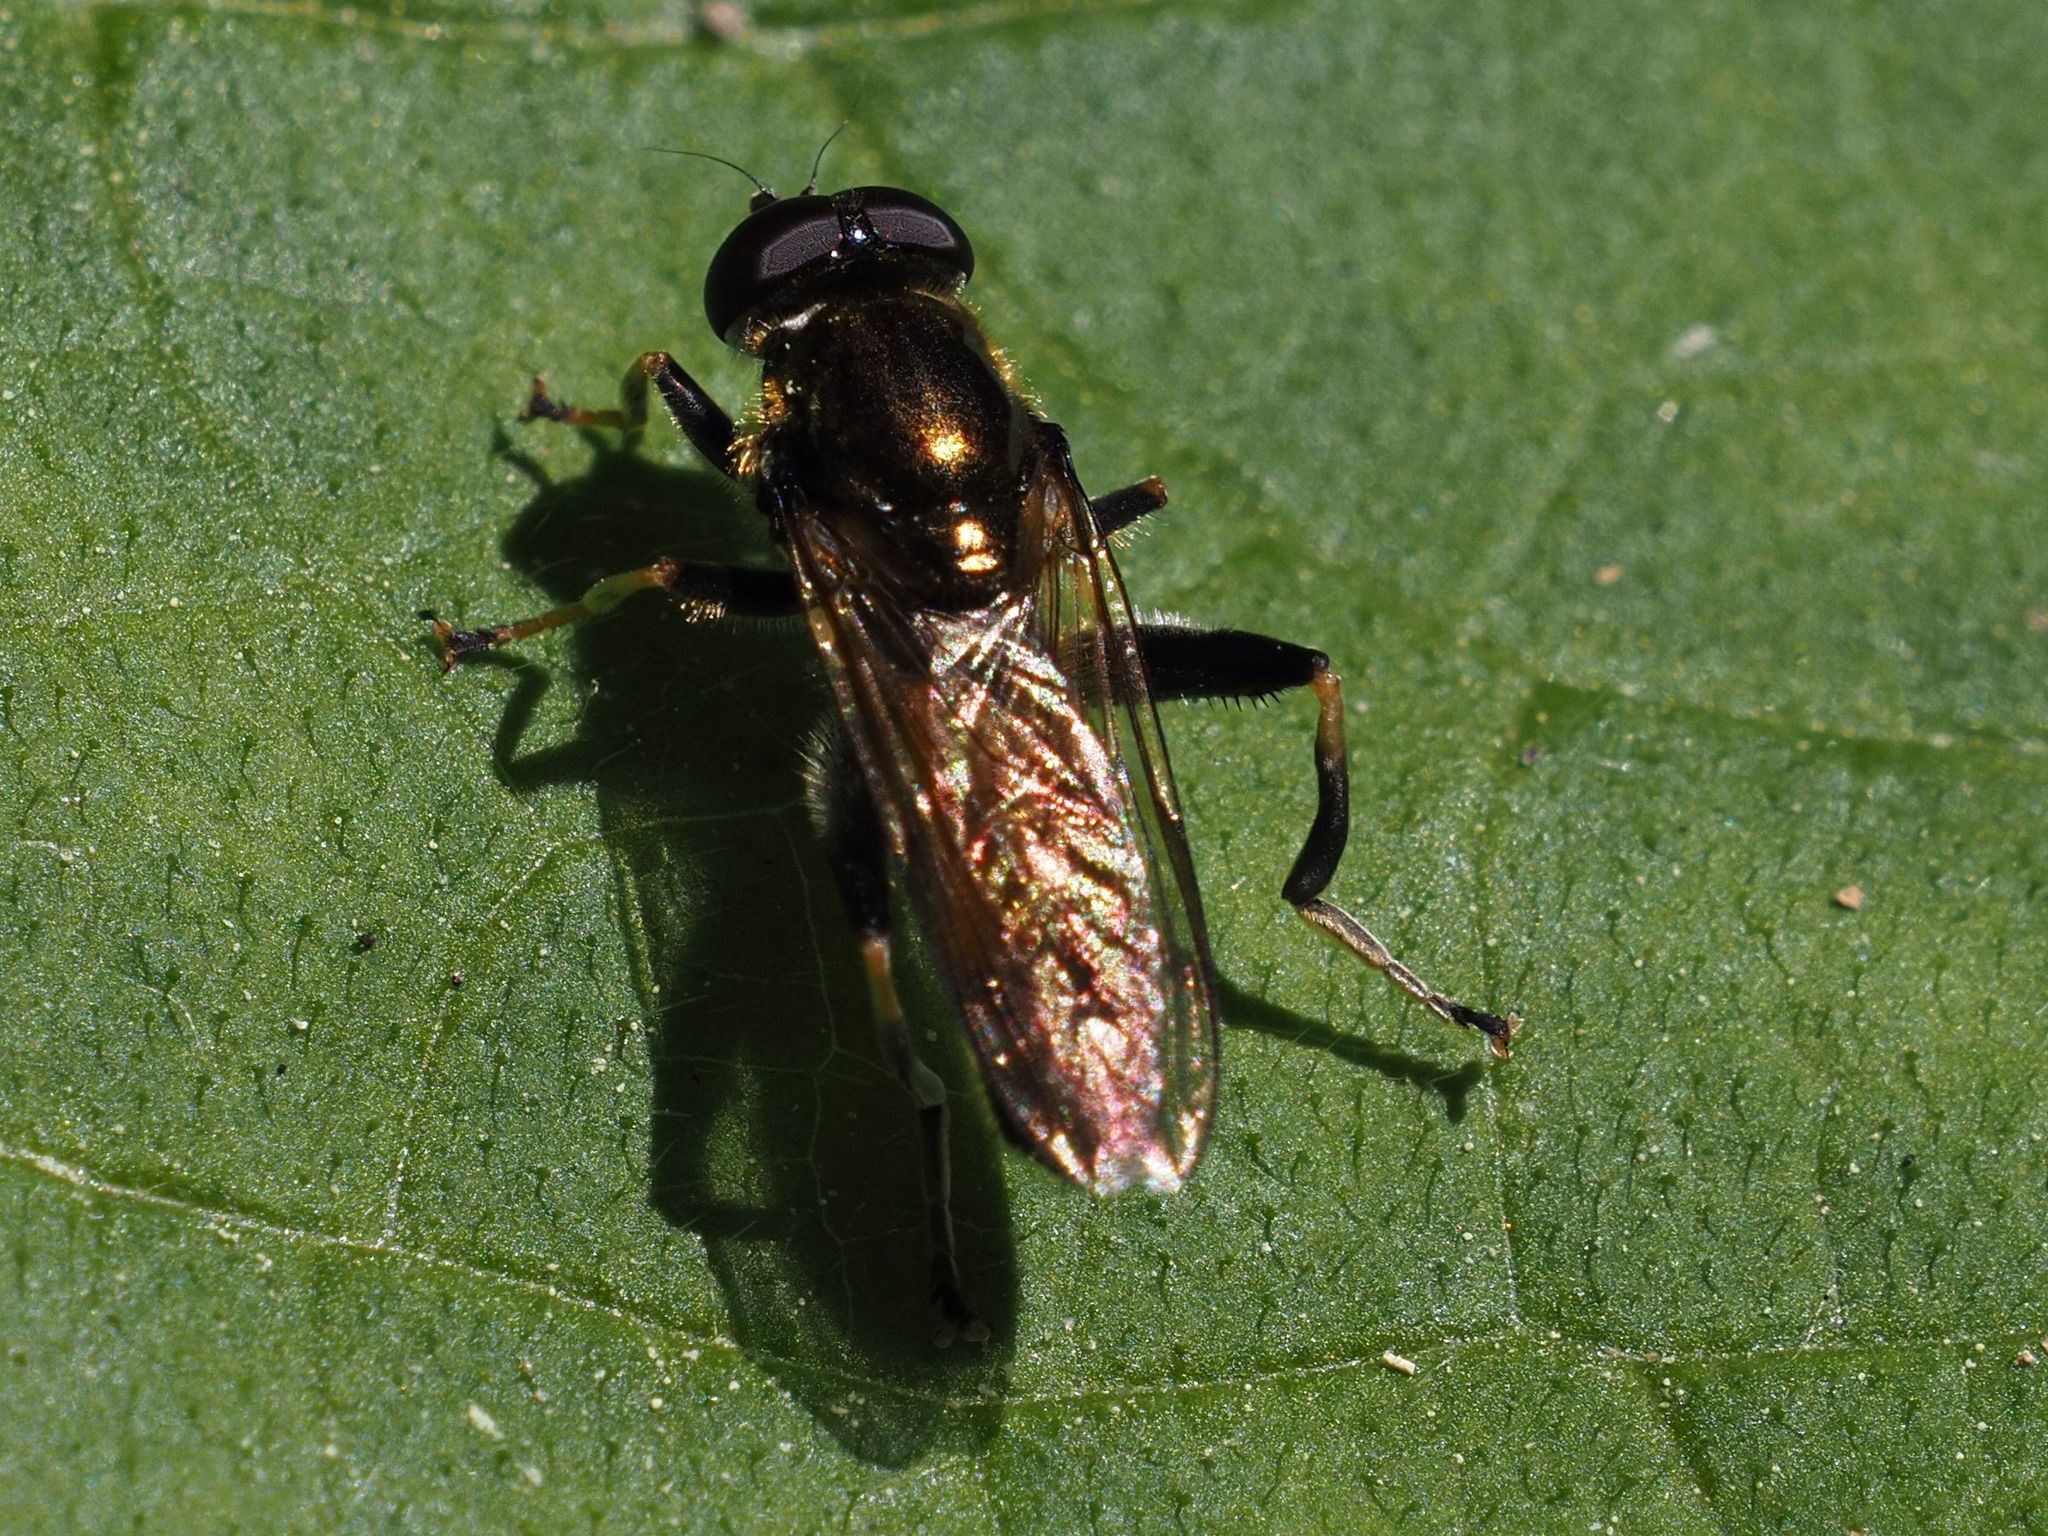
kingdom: Animalia
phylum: Arthropoda
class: Insecta
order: Diptera
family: Syrphidae
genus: Xylota
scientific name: Xylota segnis
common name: Brown-toed forest fly
